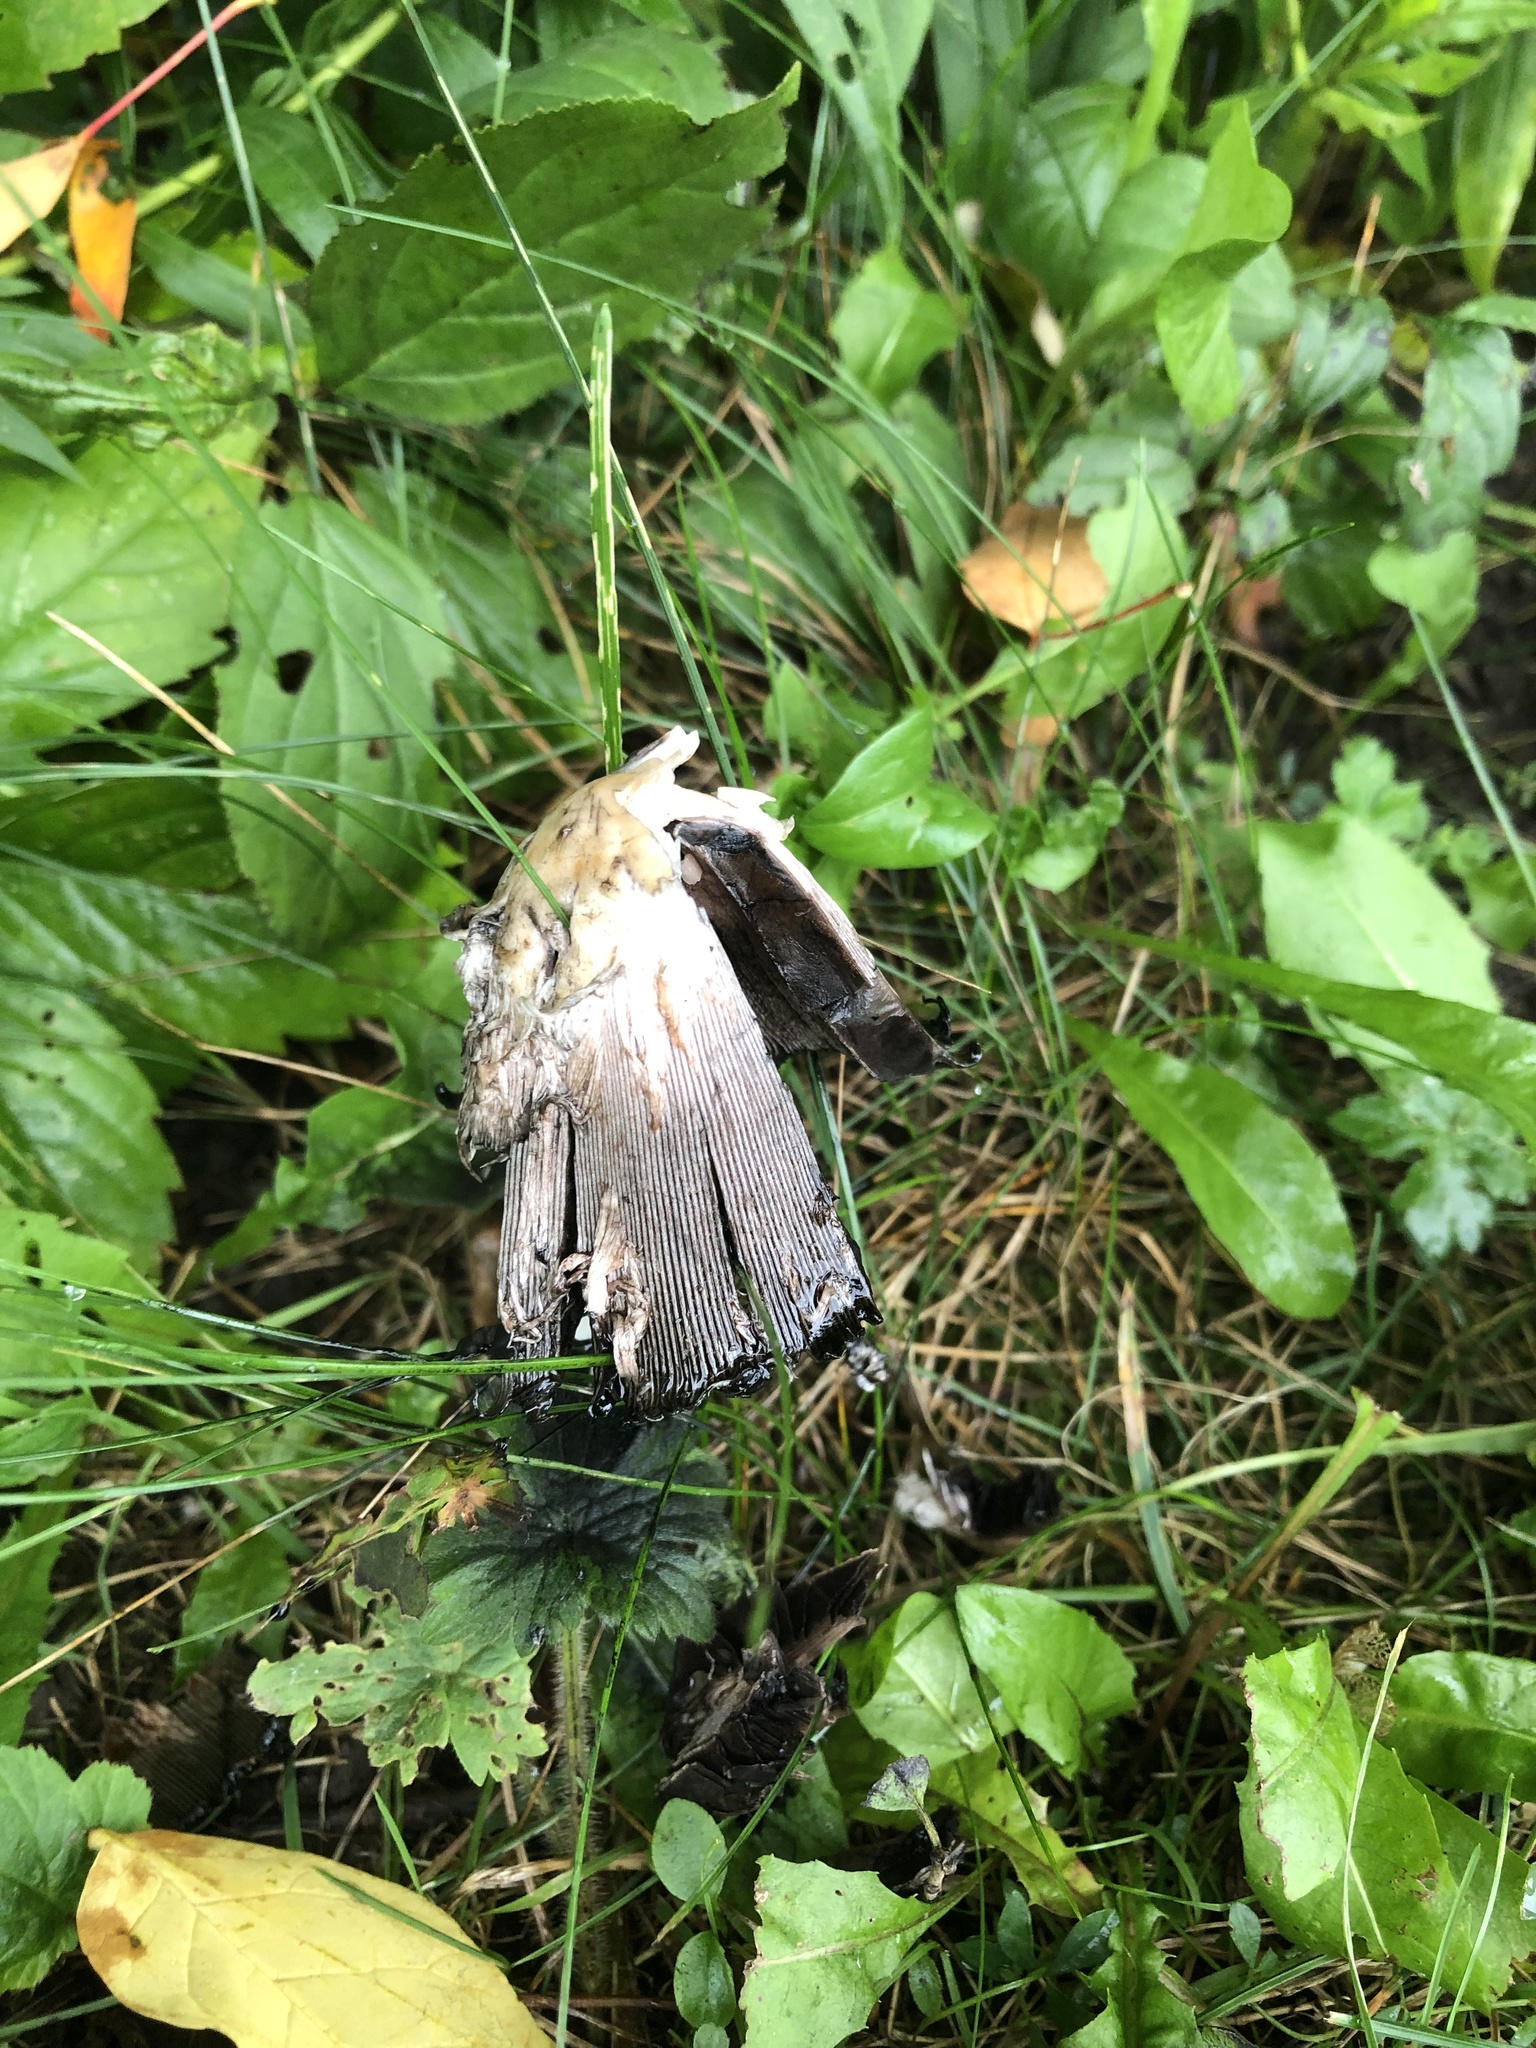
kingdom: Fungi
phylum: Basidiomycota
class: Agaricomycetes
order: Agaricales
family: Agaricaceae
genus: Coprinus
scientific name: Coprinus comatus
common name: Lawyer's wig
